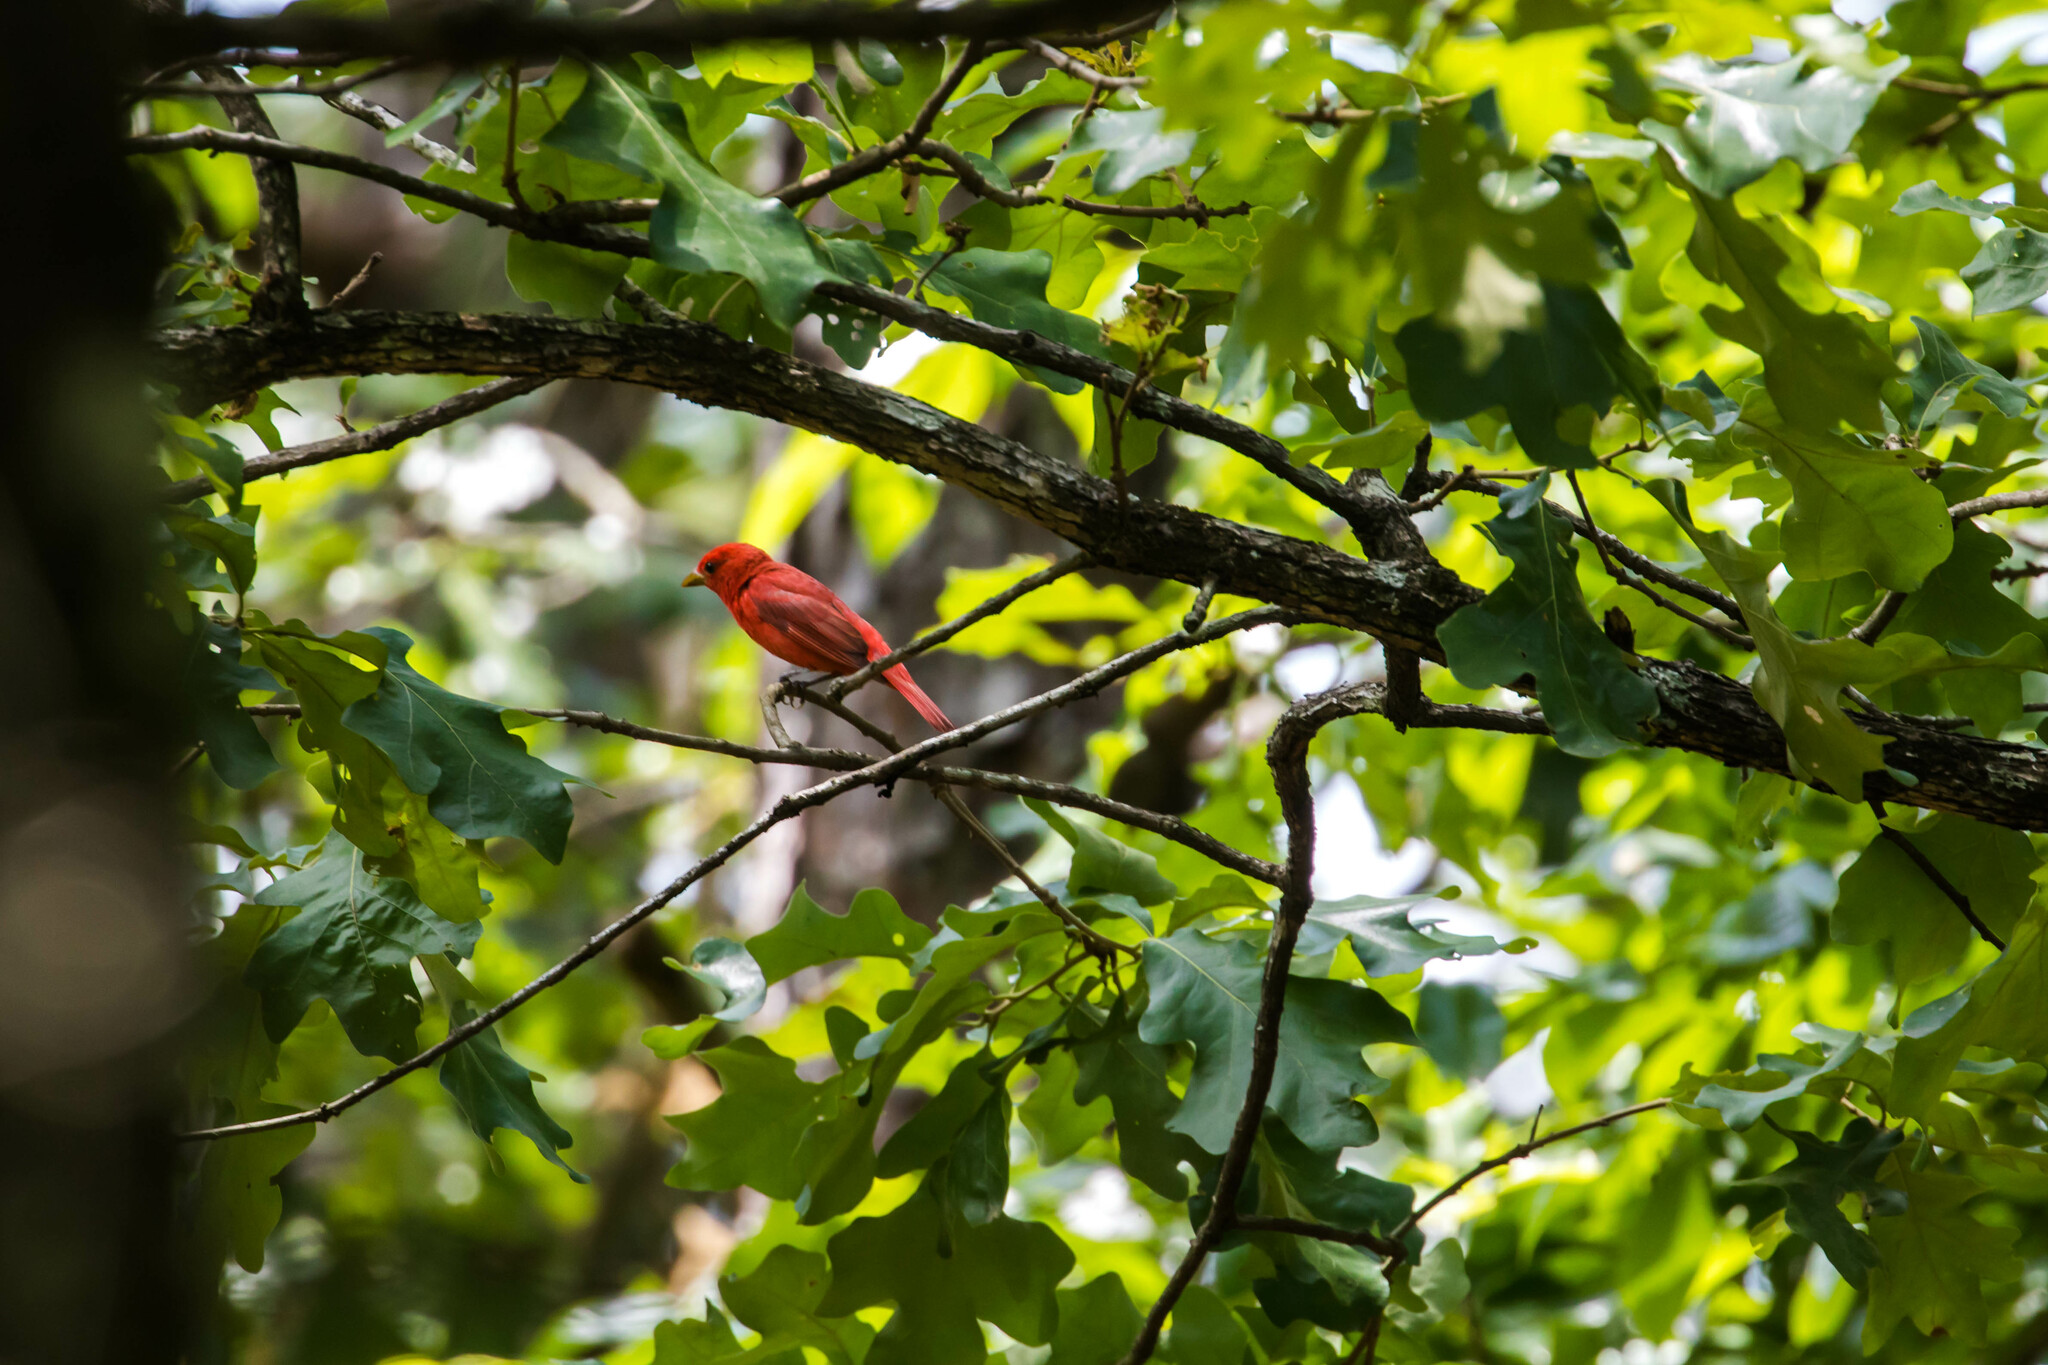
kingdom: Animalia
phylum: Chordata
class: Aves
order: Passeriformes
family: Cardinalidae
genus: Piranga
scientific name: Piranga rubra
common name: Summer tanager
